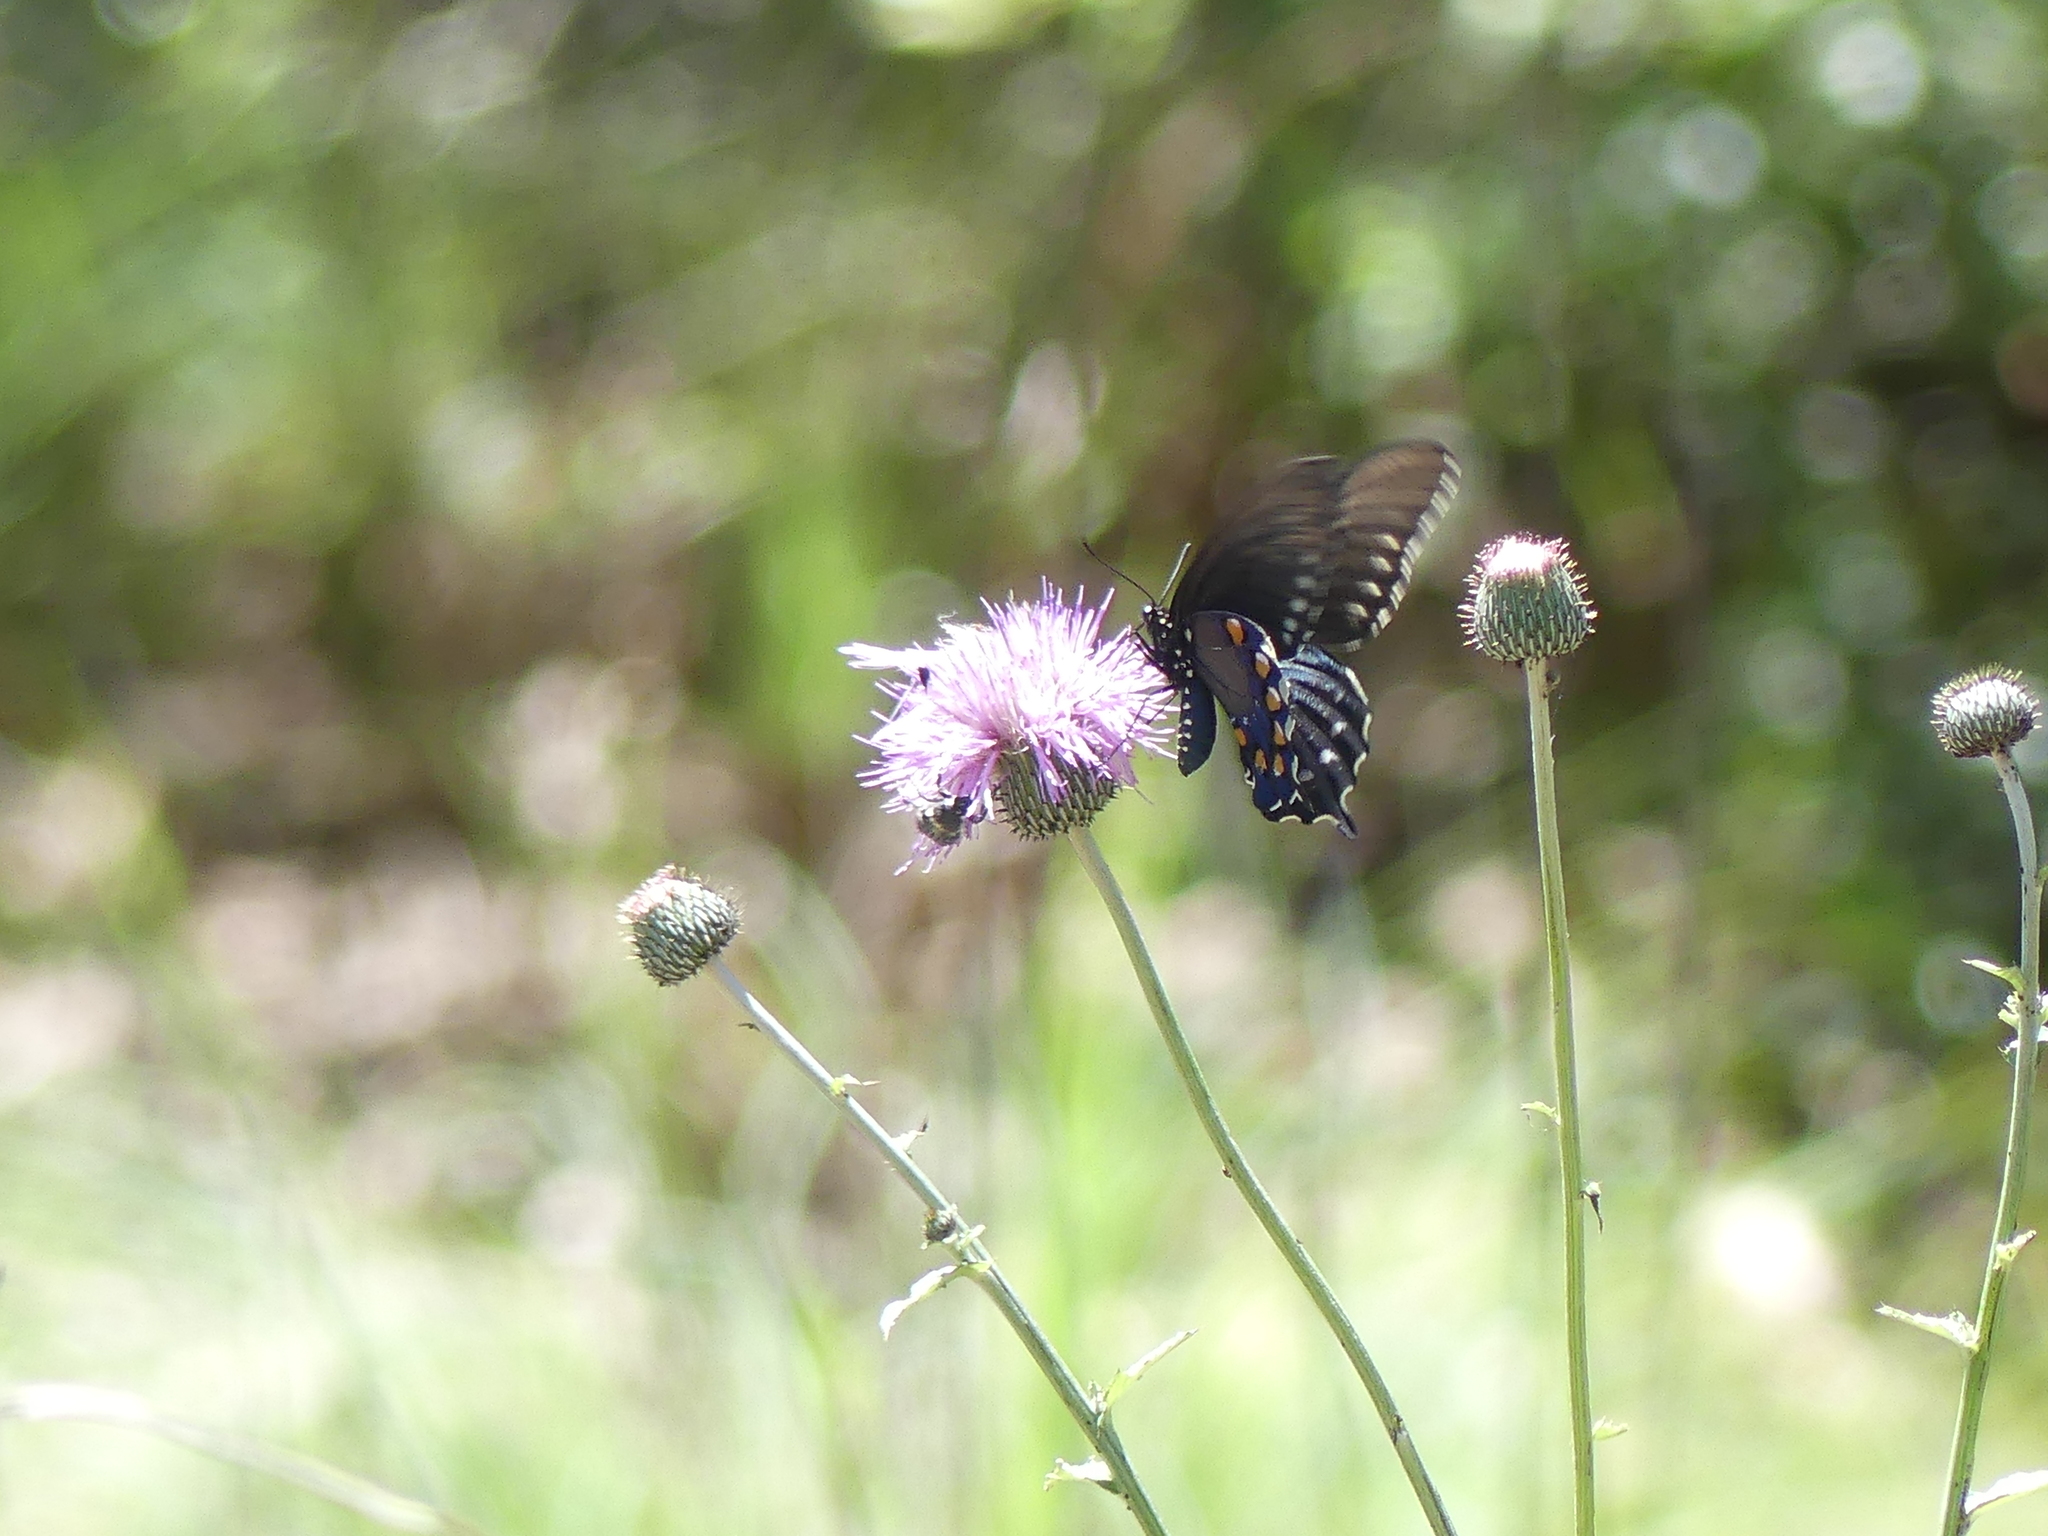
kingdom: Animalia
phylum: Arthropoda
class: Insecta
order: Lepidoptera
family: Papilionidae
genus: Battus
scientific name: Battus philenor
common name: Pipevine swallowtail
